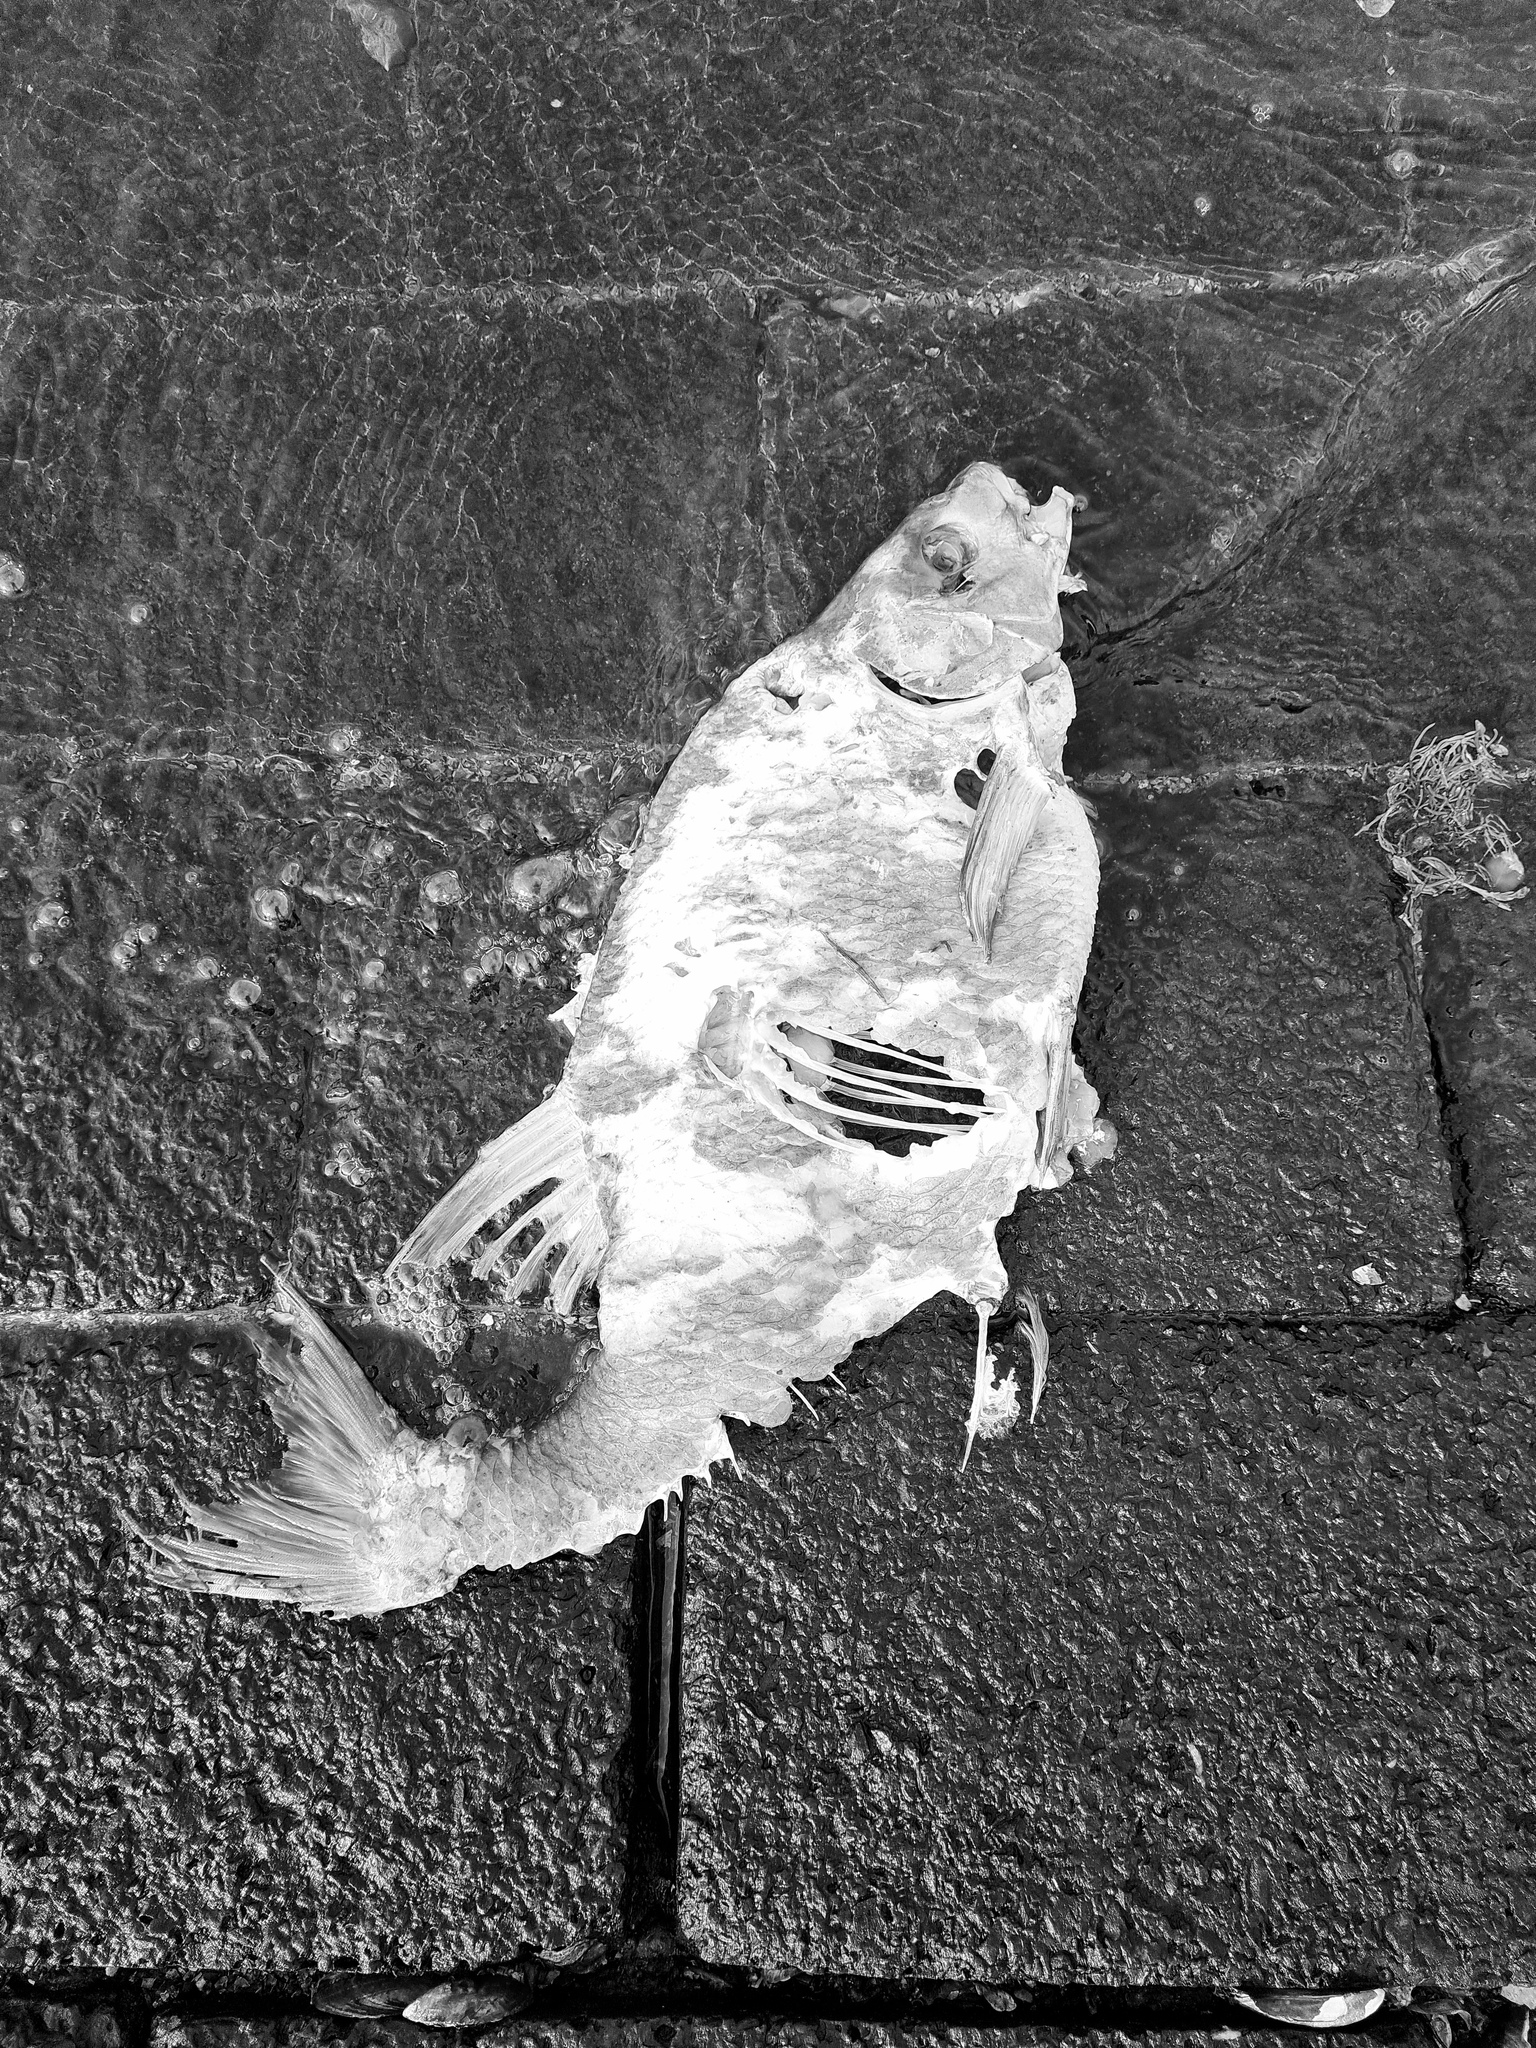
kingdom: Animalia
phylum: Chordata
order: Cypriniformes
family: Cyprinidae
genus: Abramis
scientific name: Abramis brama
